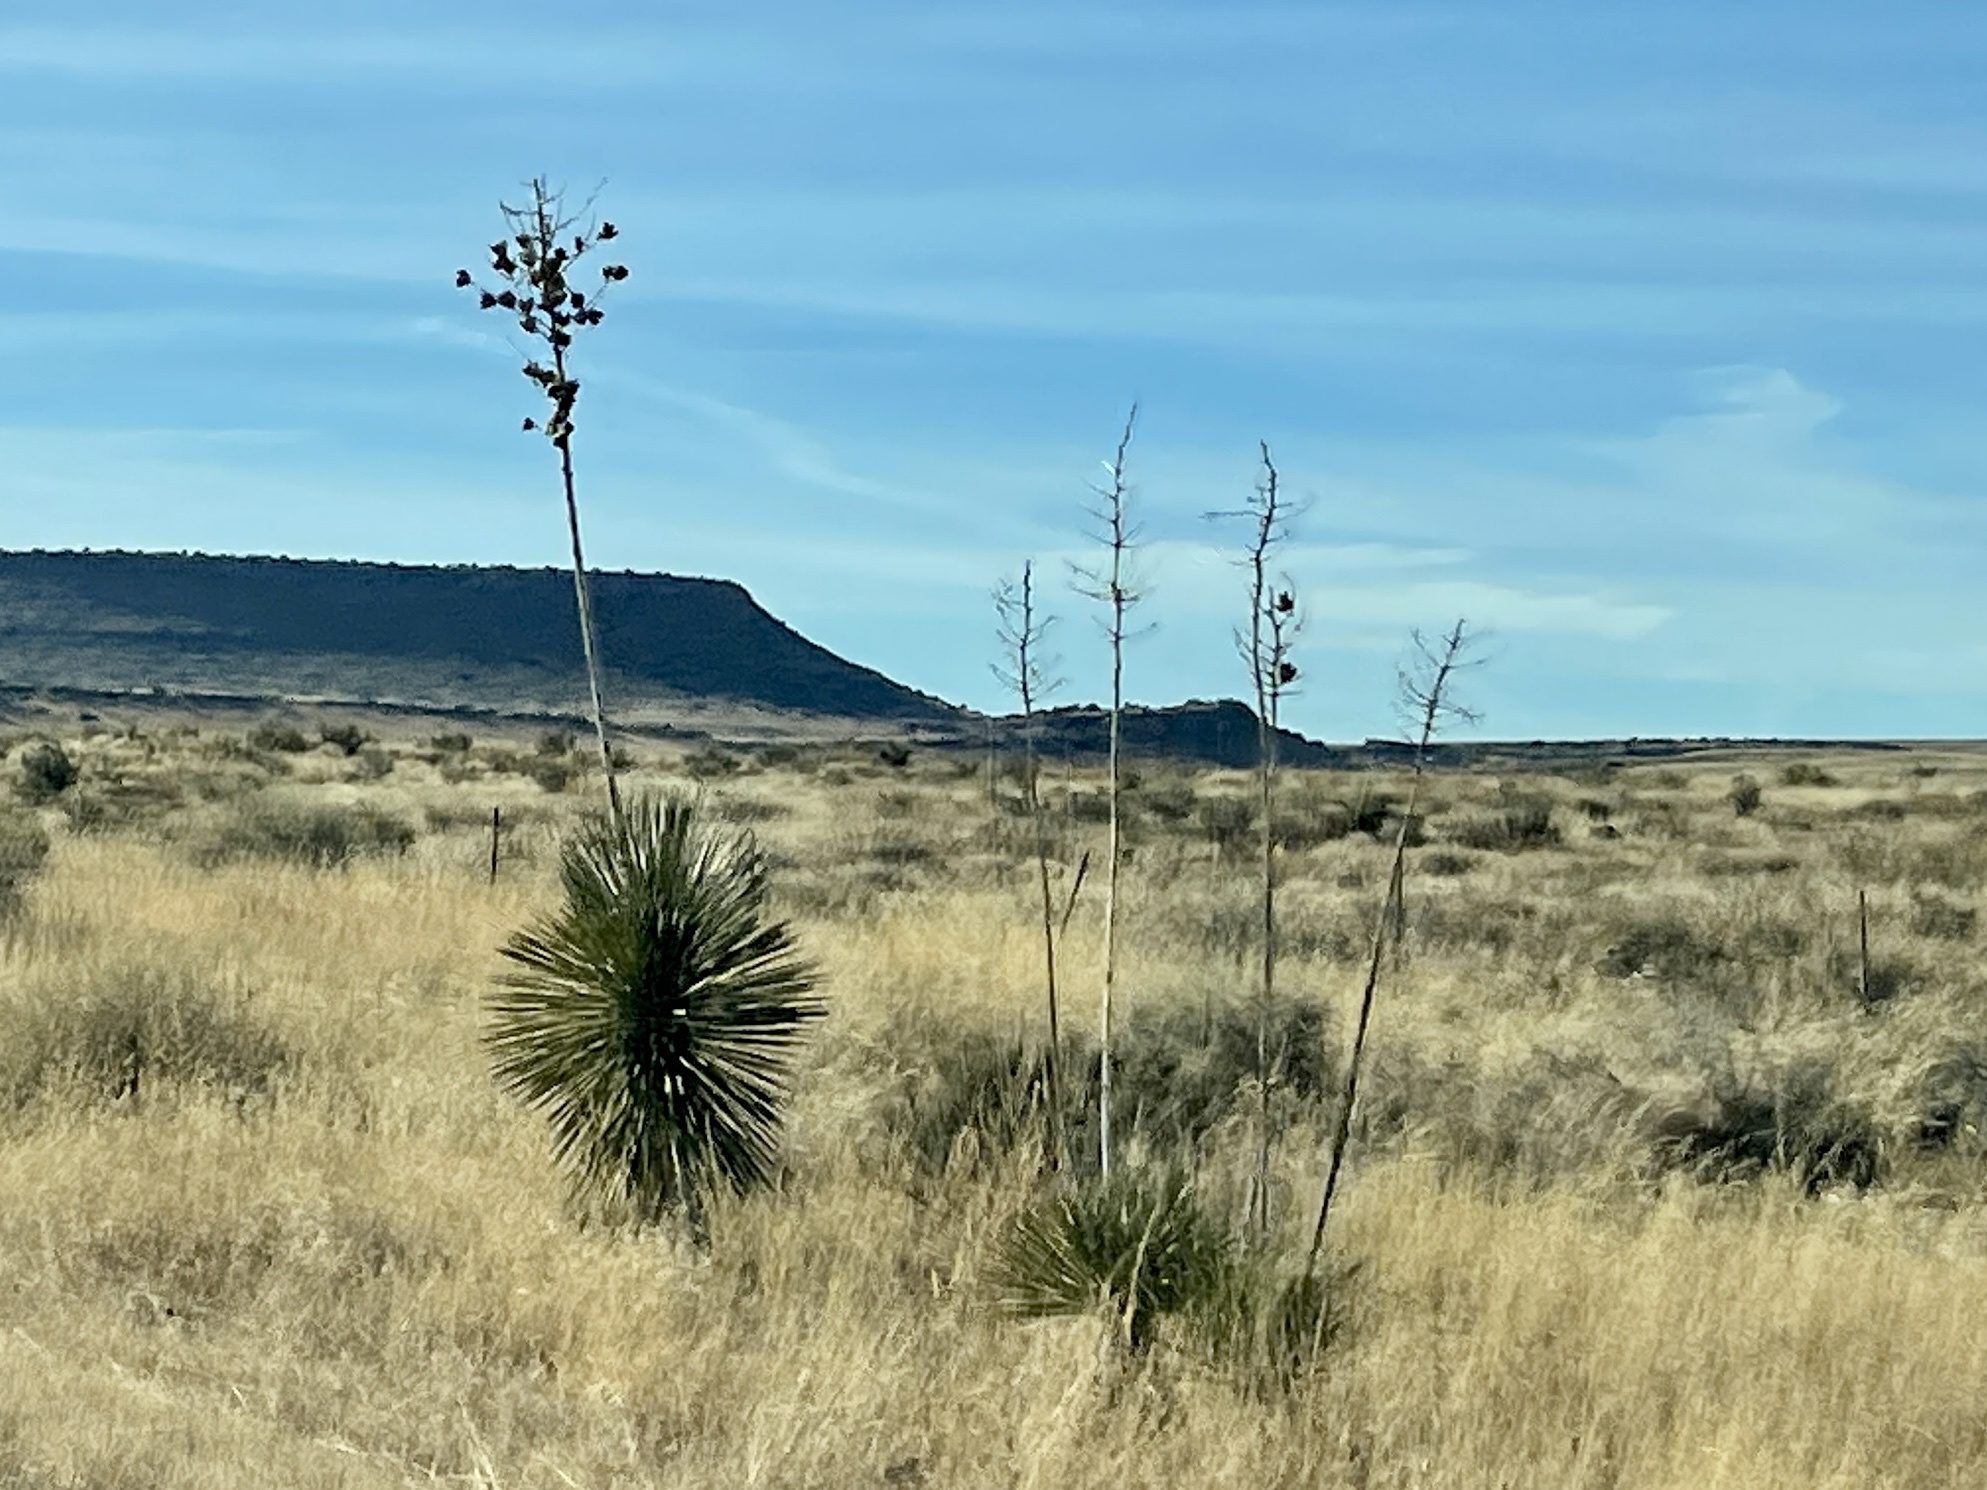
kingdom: Plantae
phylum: Tracheophyta
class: Liliopsida
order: Asparagales
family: Asparagaceae
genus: Yucca
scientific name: Yucca elata
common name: Palmella
